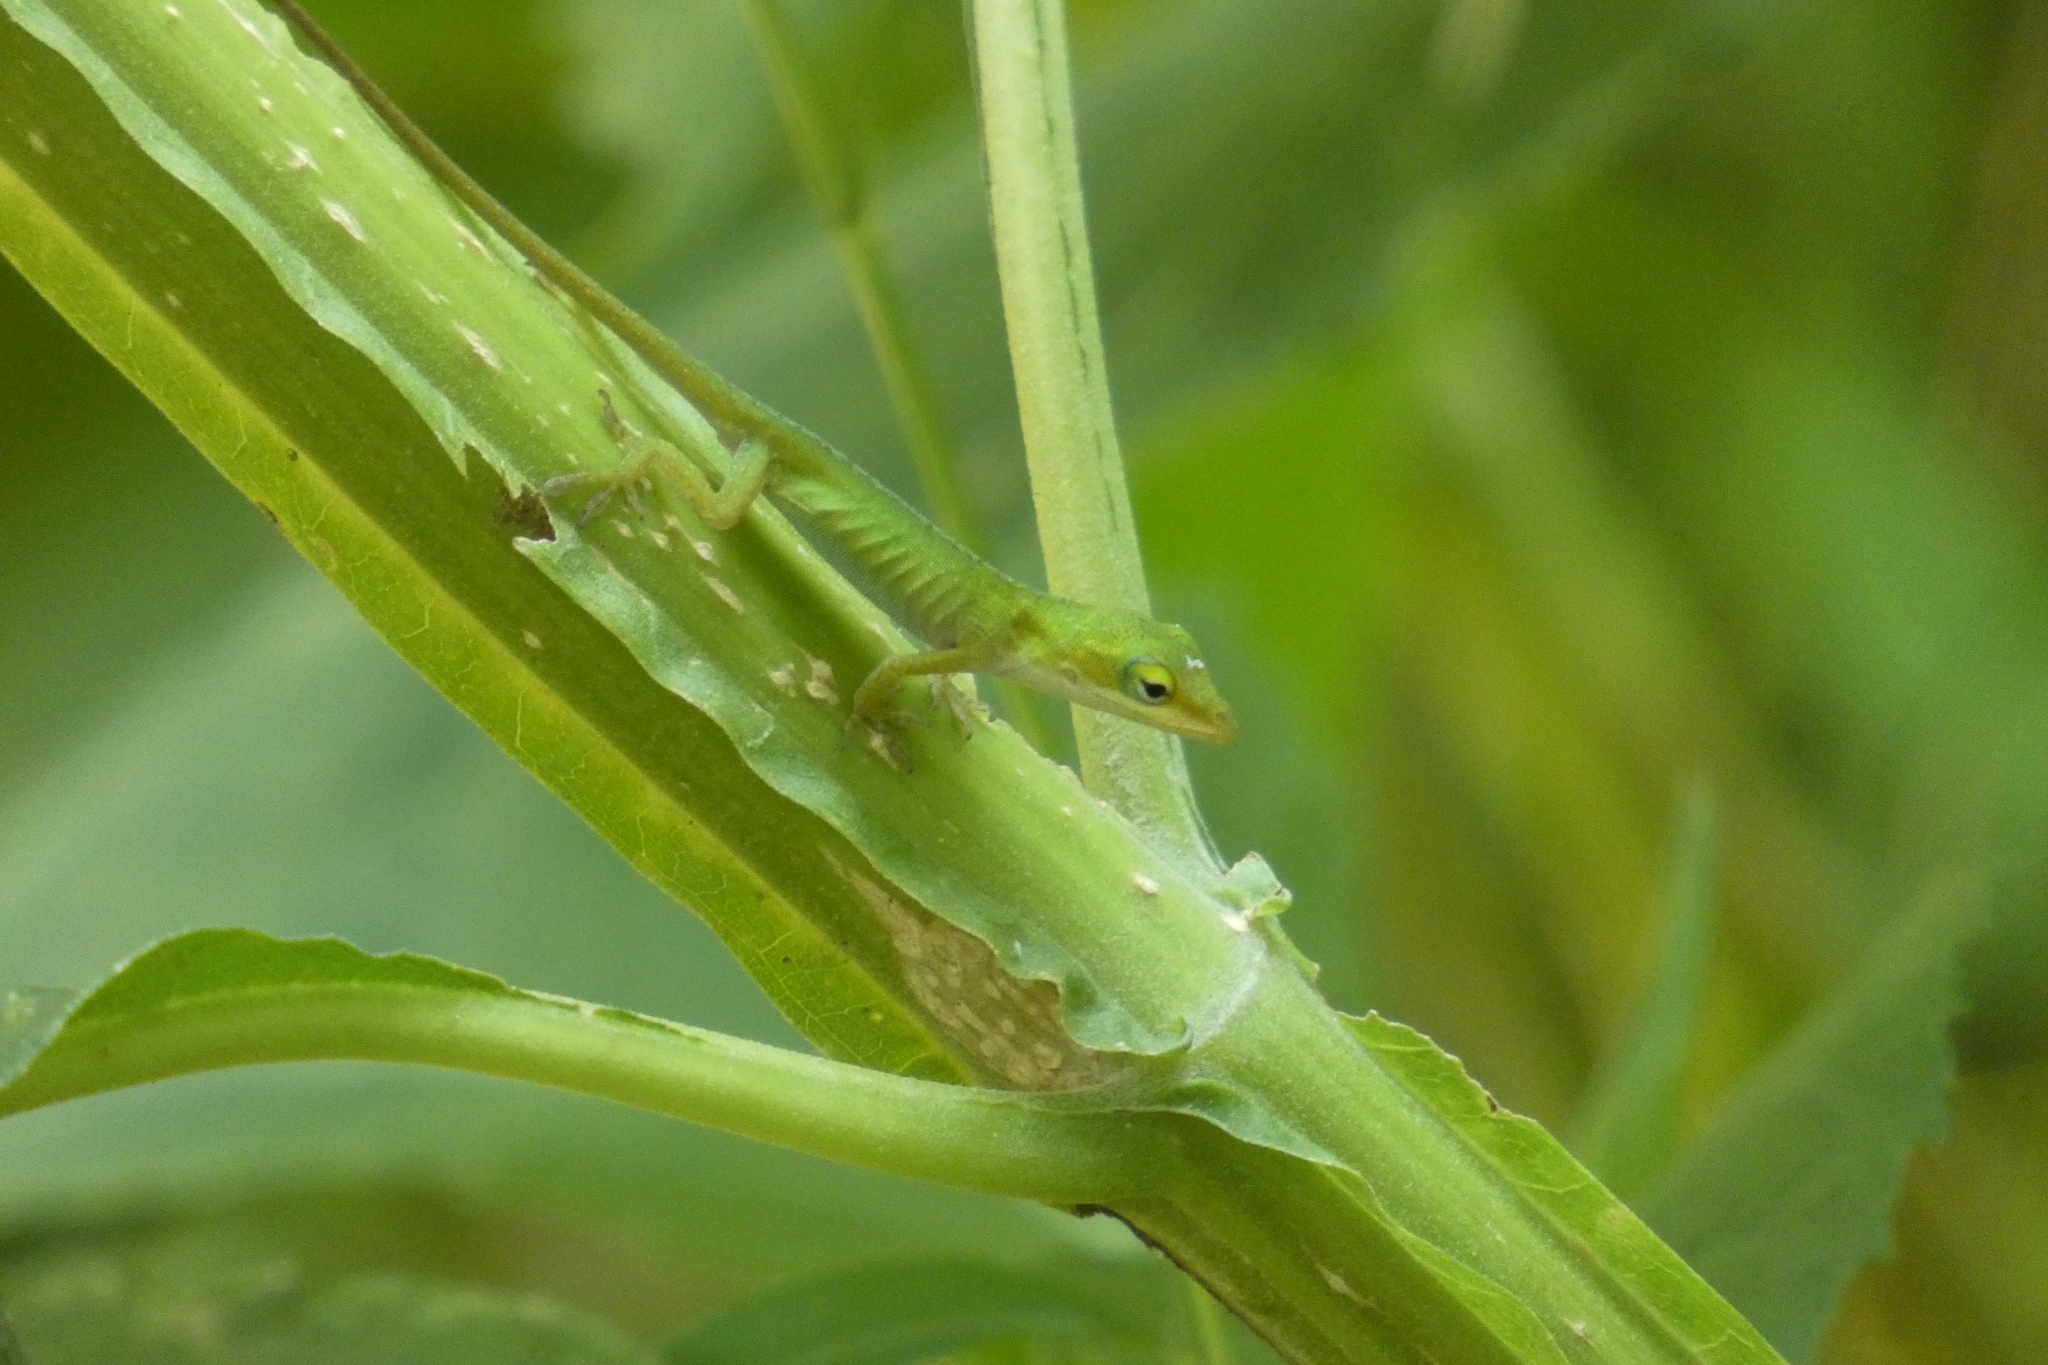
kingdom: Animalia
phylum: Chordata
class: Squamata
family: Dactyloidae
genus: Anolis
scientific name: Anolis carolinensis
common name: Green anole
